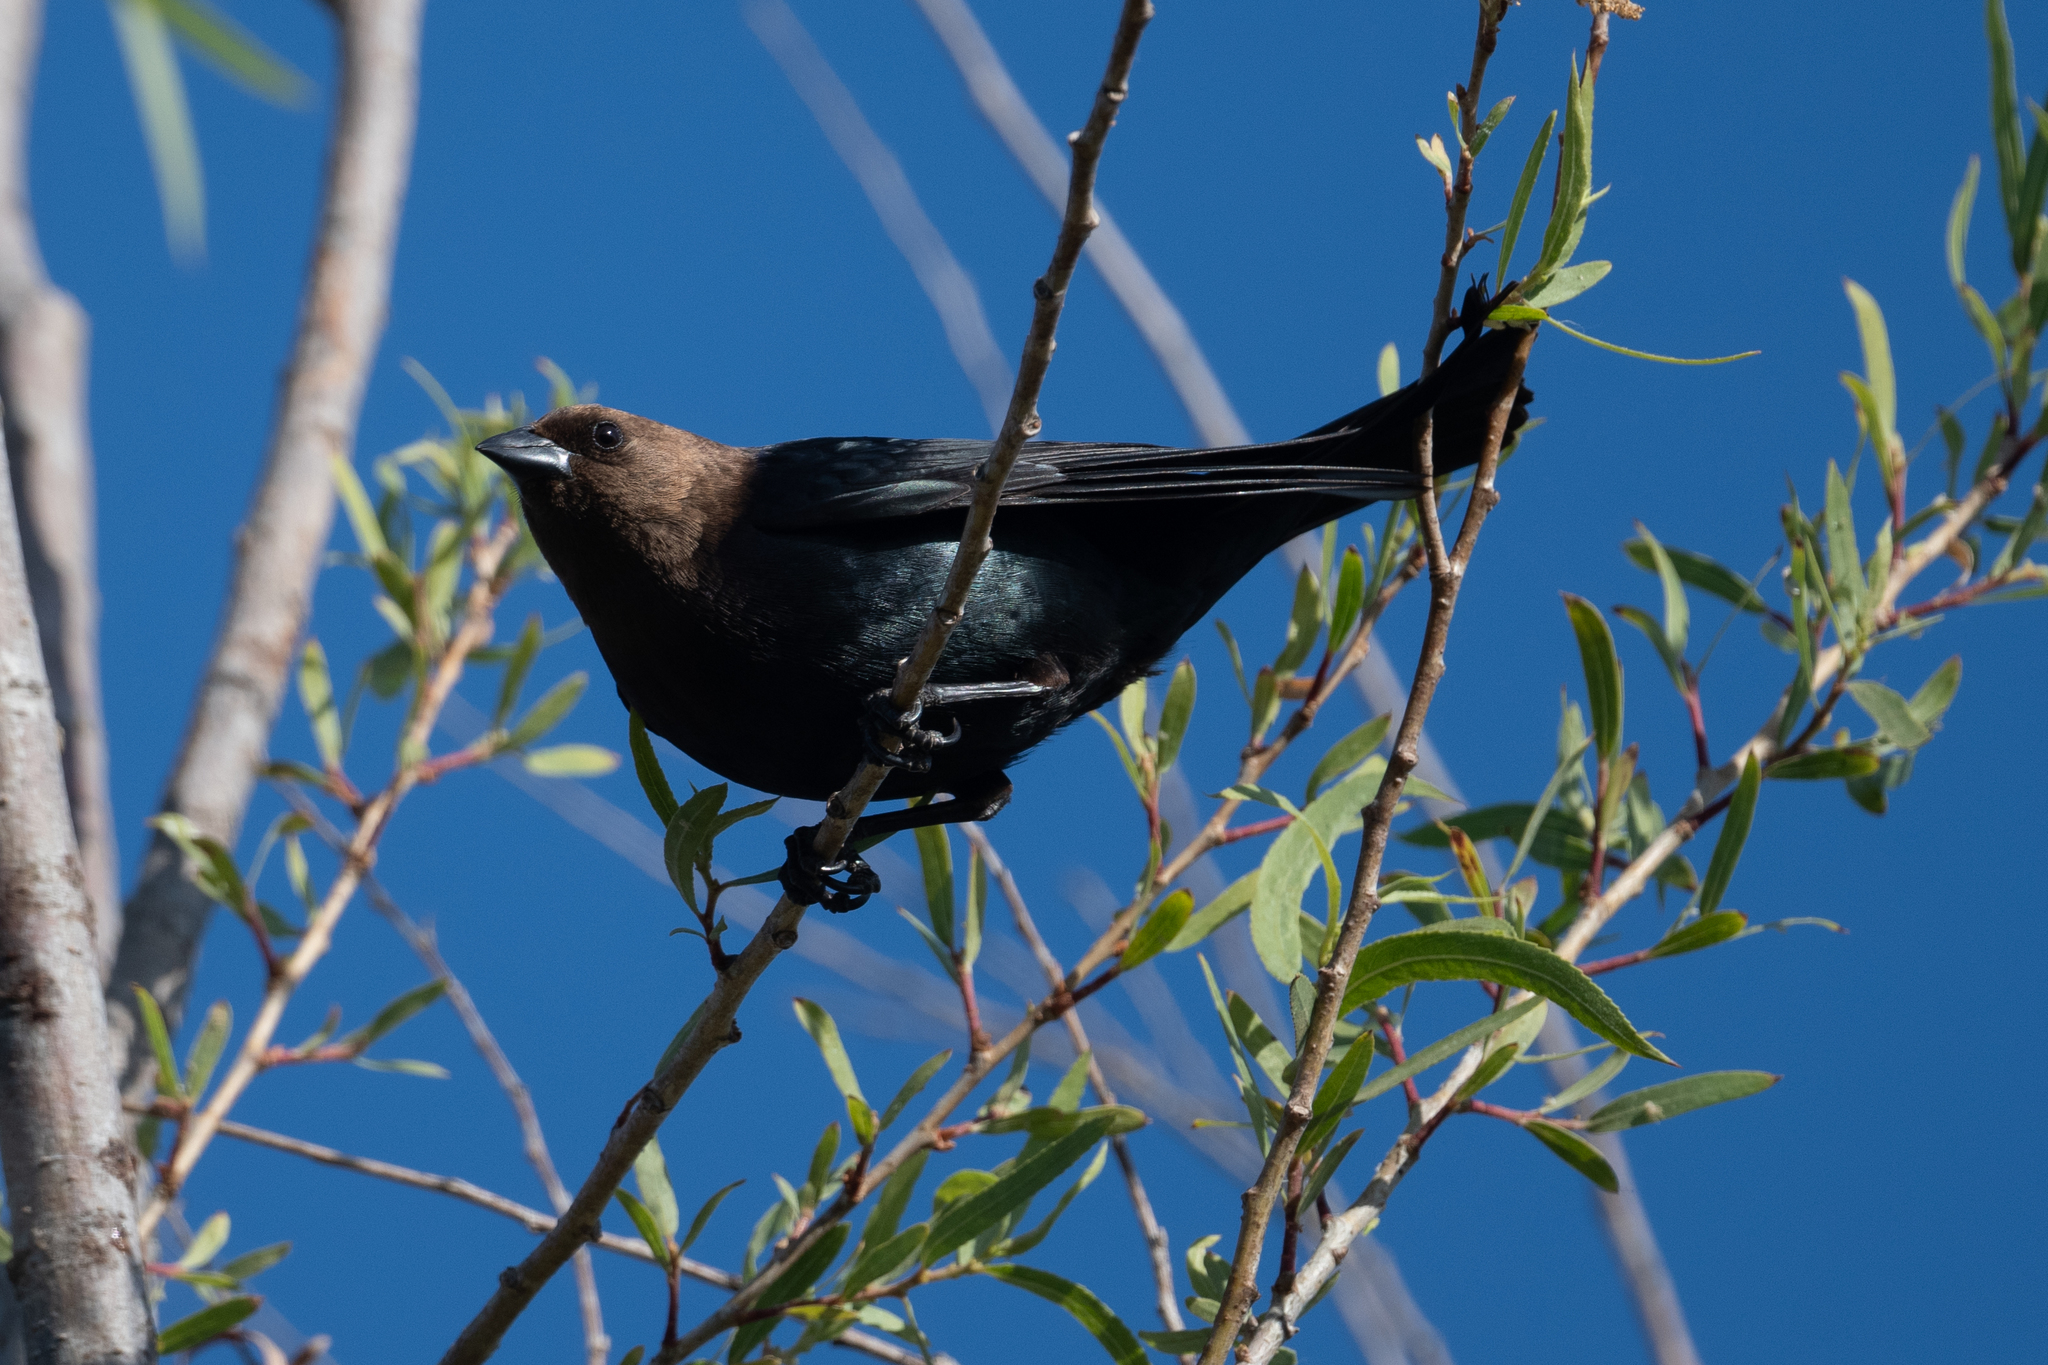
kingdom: Animalia
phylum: Chordata
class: Aves
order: Passeriformes
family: Icteridae
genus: Molothrus
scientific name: Molothrus ater
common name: Brown-headed cowbird
